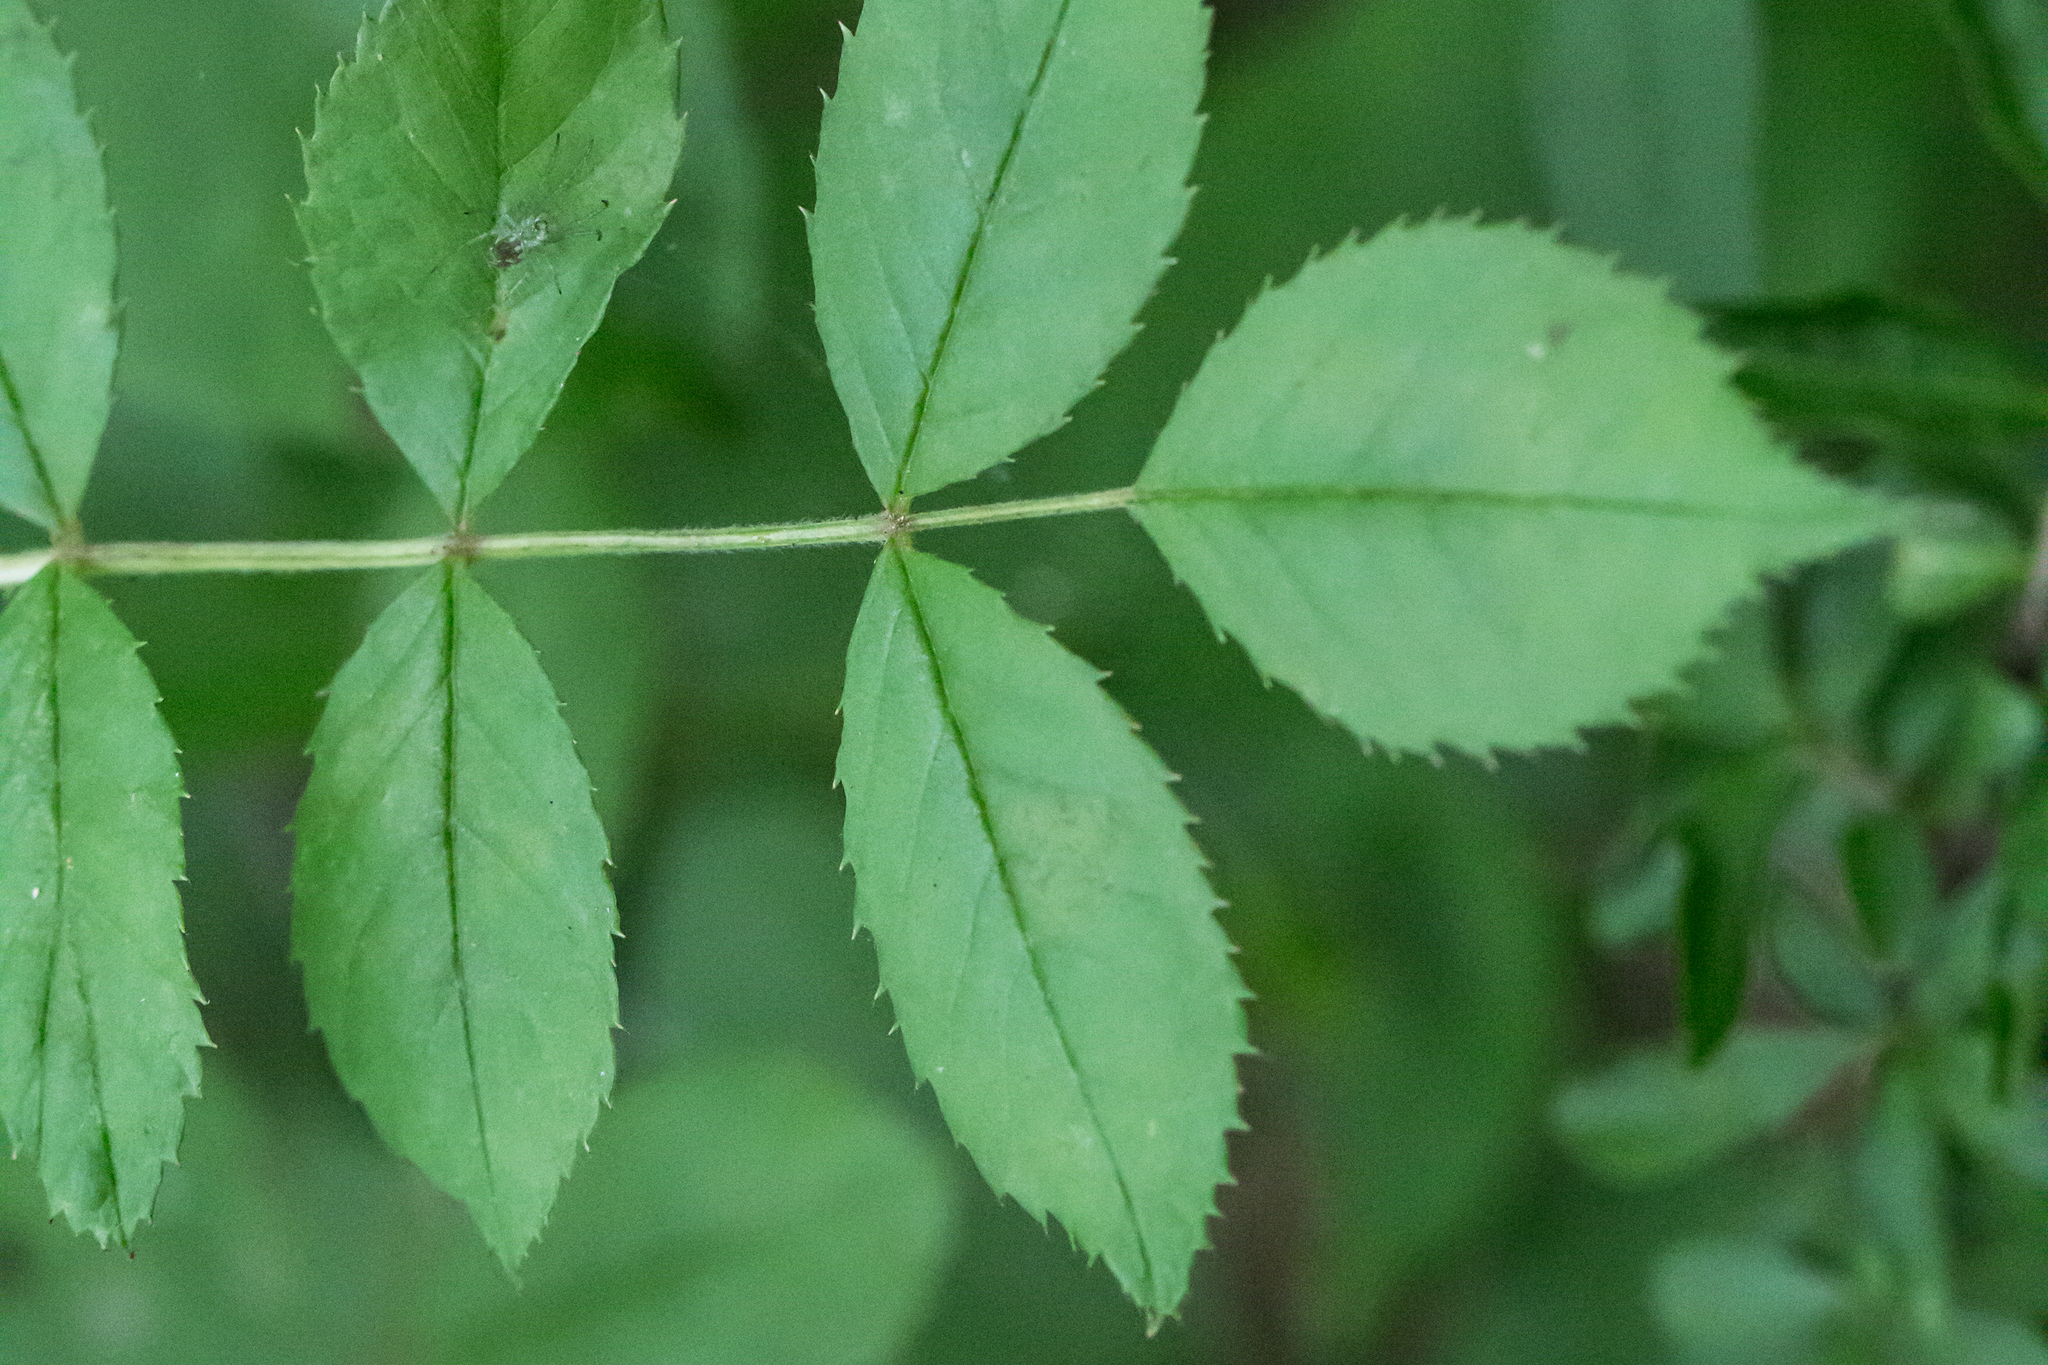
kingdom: Plantae
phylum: Tracheophyta
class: Magnoliopsida
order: Rosales
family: Rosaceae
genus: Rosa
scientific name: Rosa multiflora
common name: Multiflora rose
